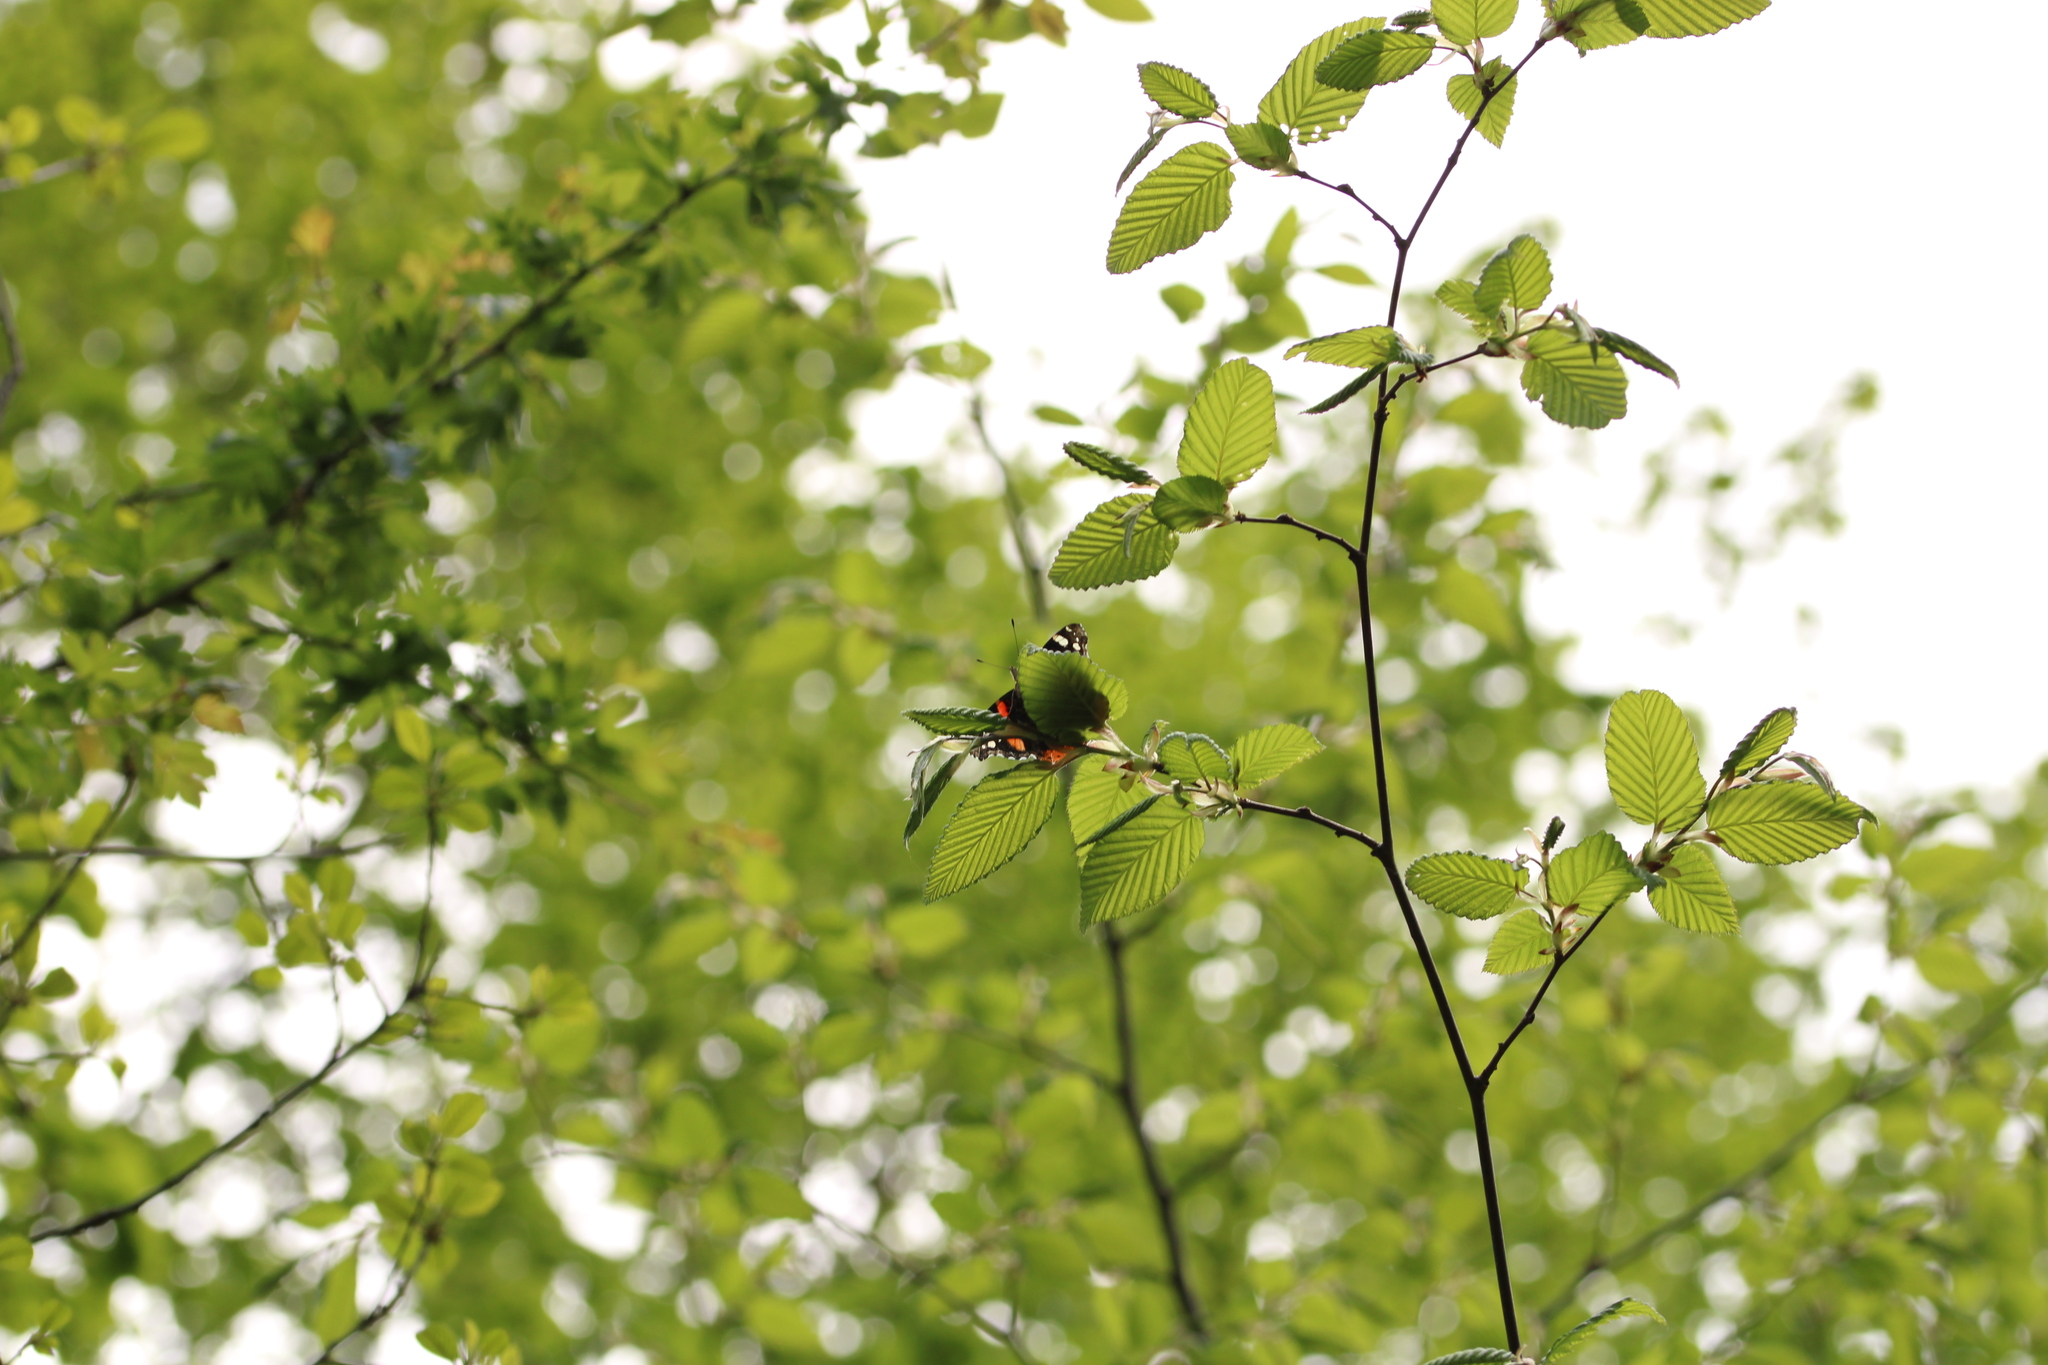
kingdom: Animalia
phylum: Arthropoda
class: Insecta
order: Lepidoptera
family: Nymphalidae
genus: Vanessa
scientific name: Vanessa atalanta
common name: Red admiral
